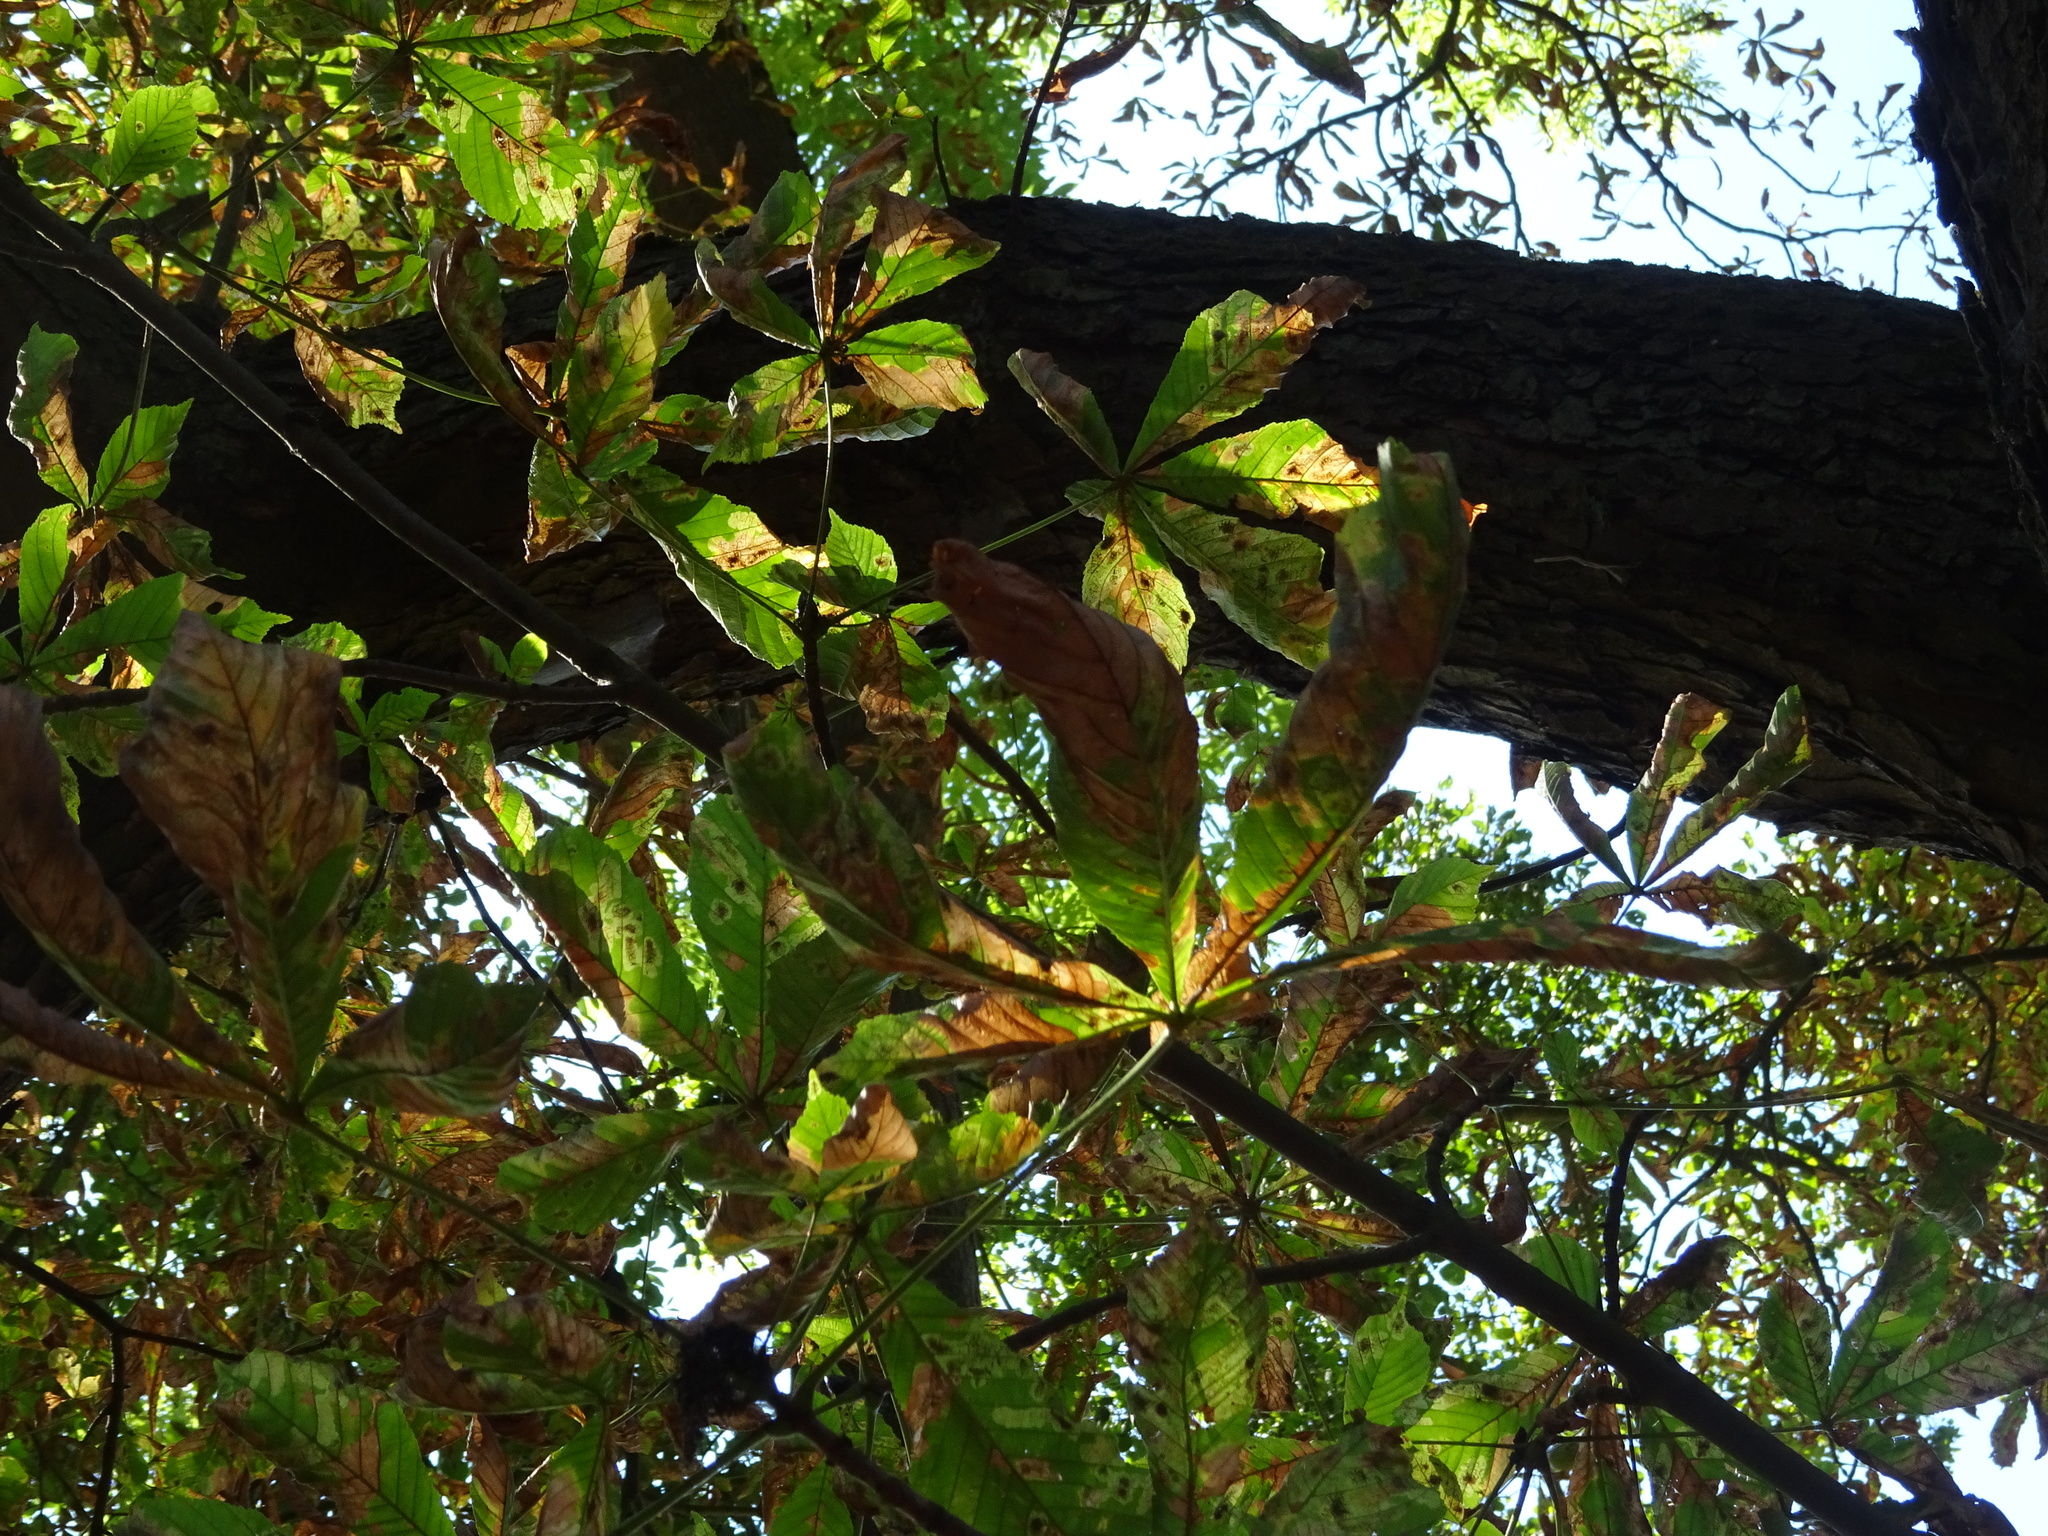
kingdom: Plantae
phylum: Tracheophyta
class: Magnoliopsida
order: Sapindales
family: Sapindaceae
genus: Aesculus
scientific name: Aesculus hippocastanum
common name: Horse-chestnut
